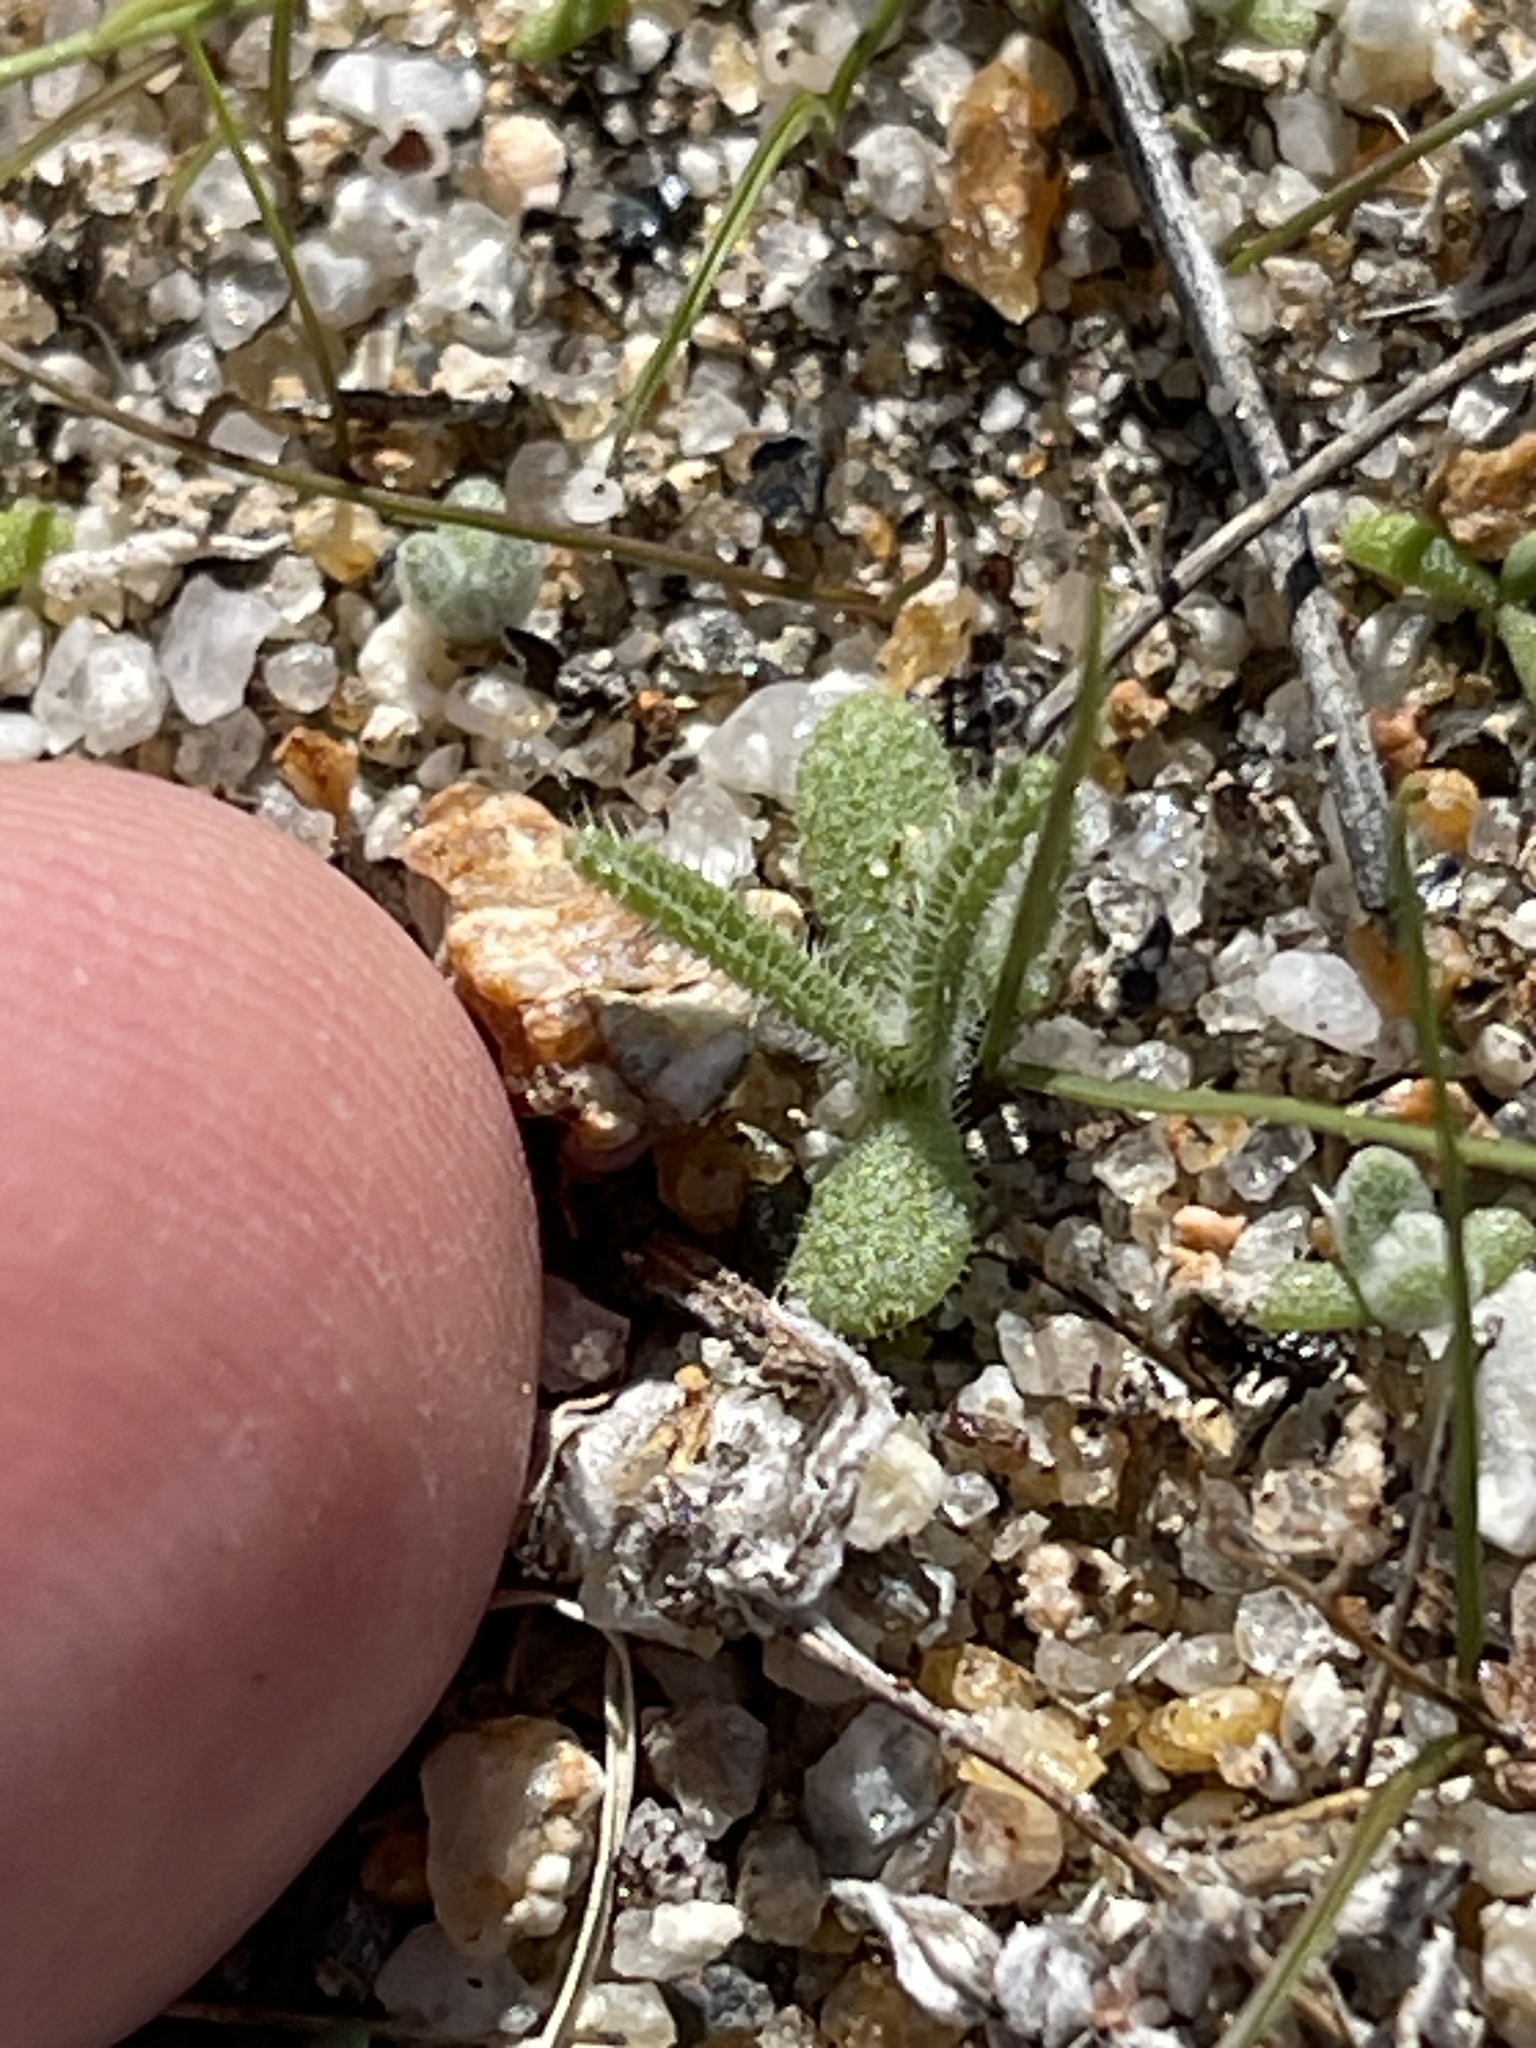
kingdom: Plantae
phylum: Tracheophyta
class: Magnoliopsida
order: Boraginales
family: Boraginaceae
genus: Johnstonella
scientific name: Johnstonella angustifolia
